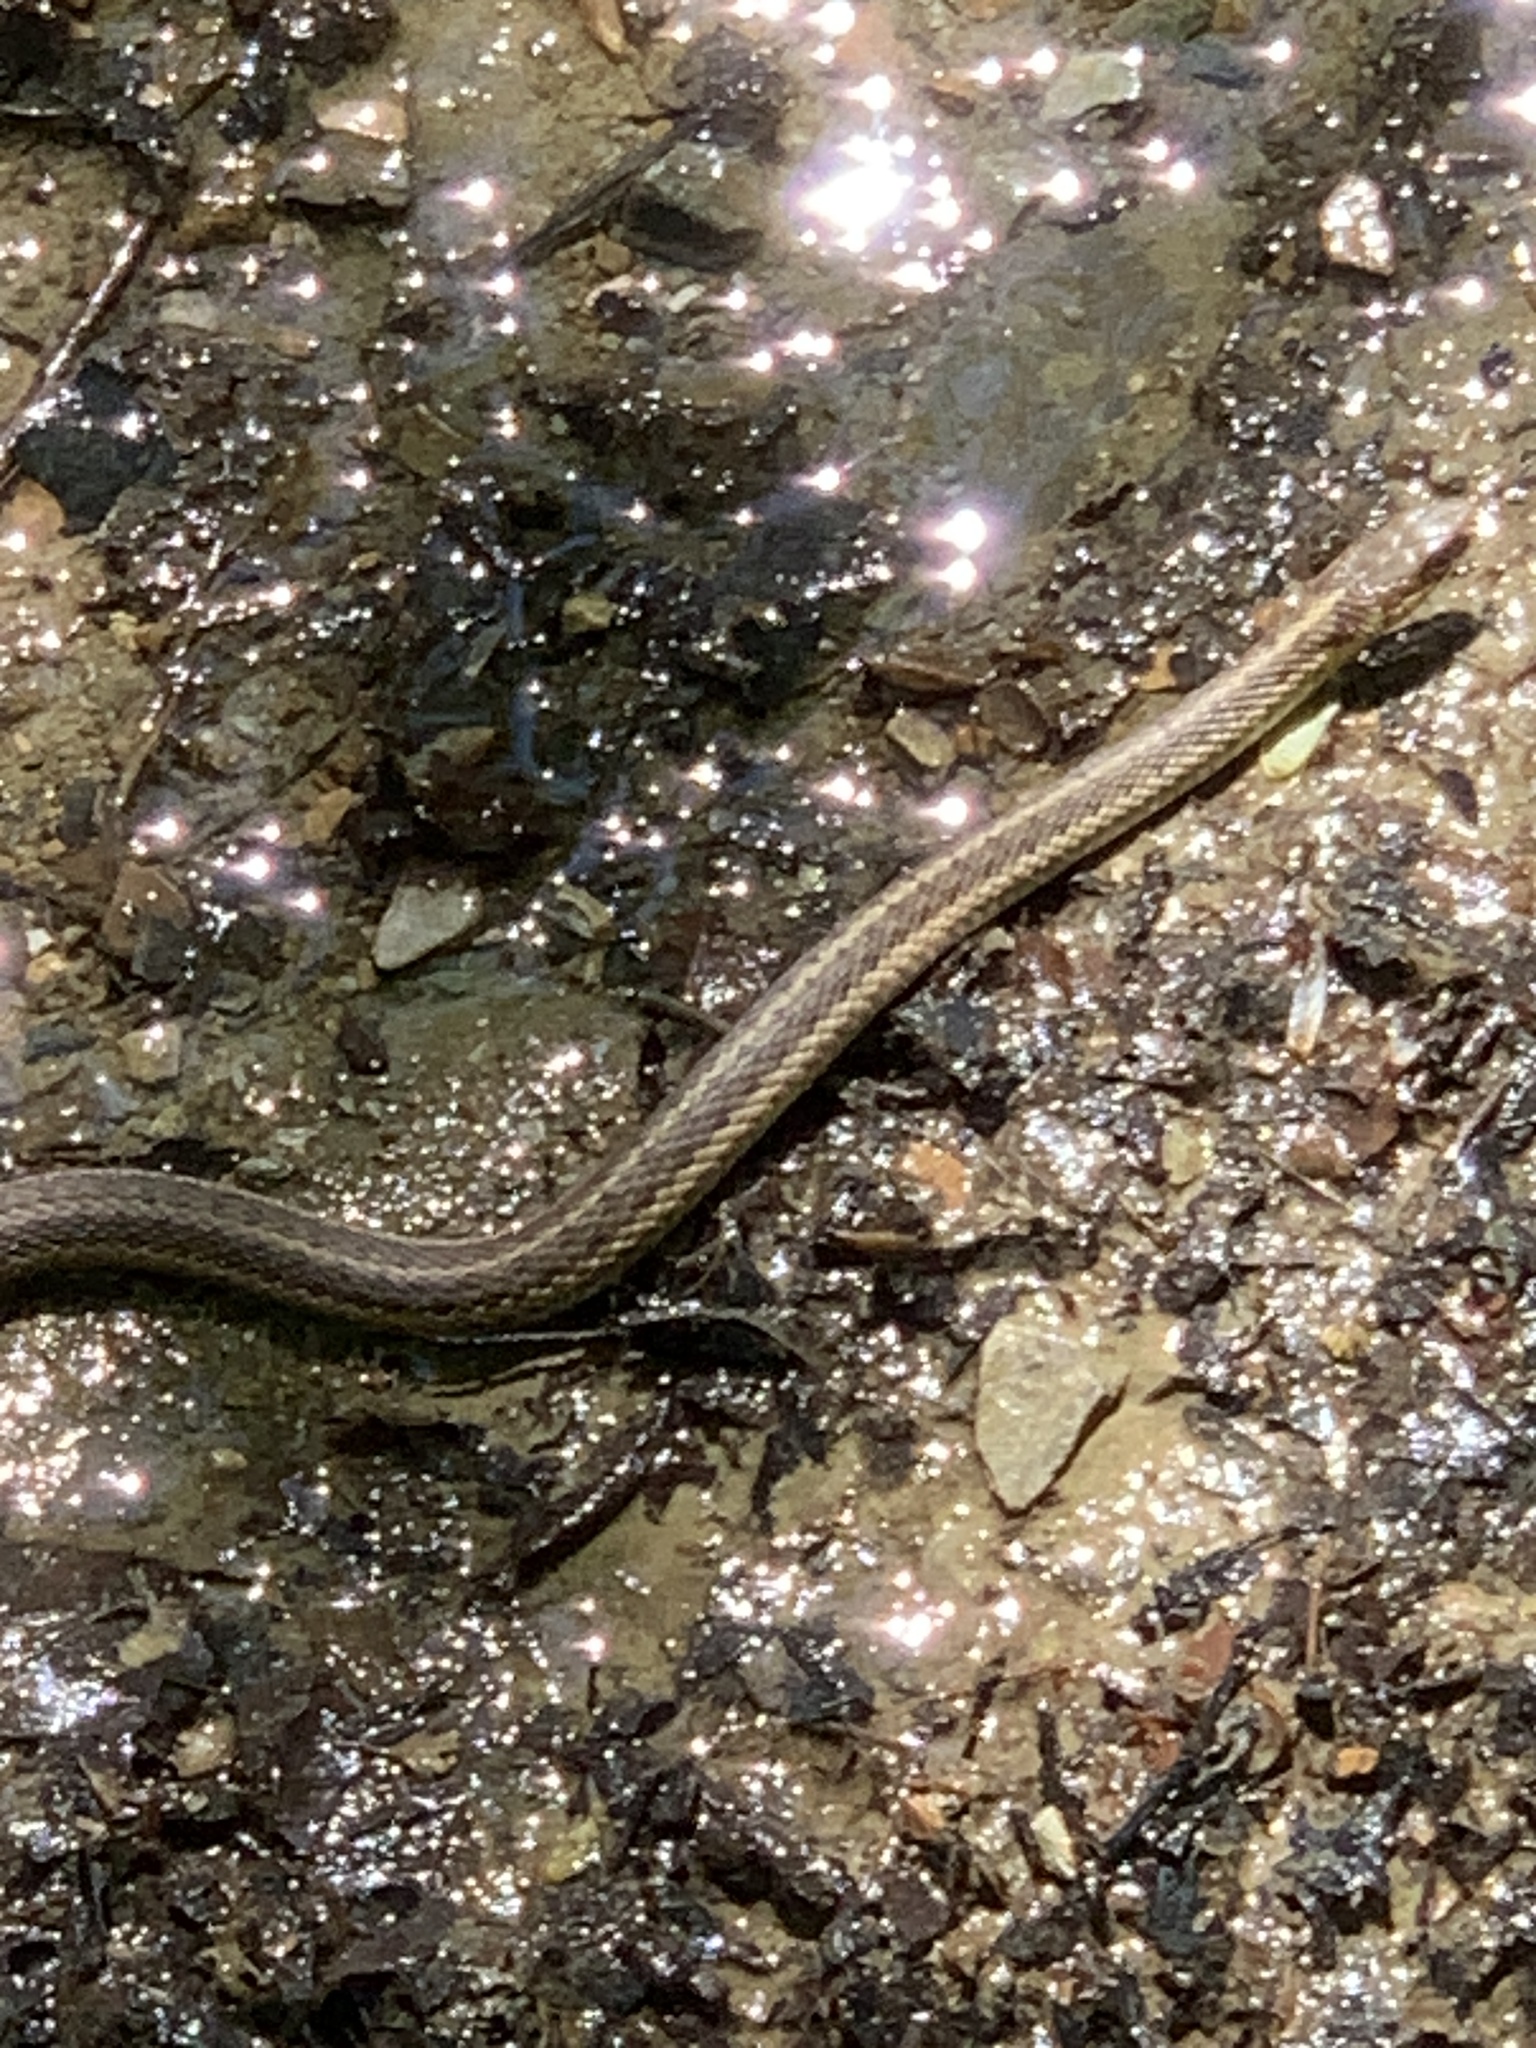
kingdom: Animalia
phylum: Chordata
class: Squamata
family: Colubridae
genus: Thamnophis
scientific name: Thamnophis sirtalis
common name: Common garter snake
